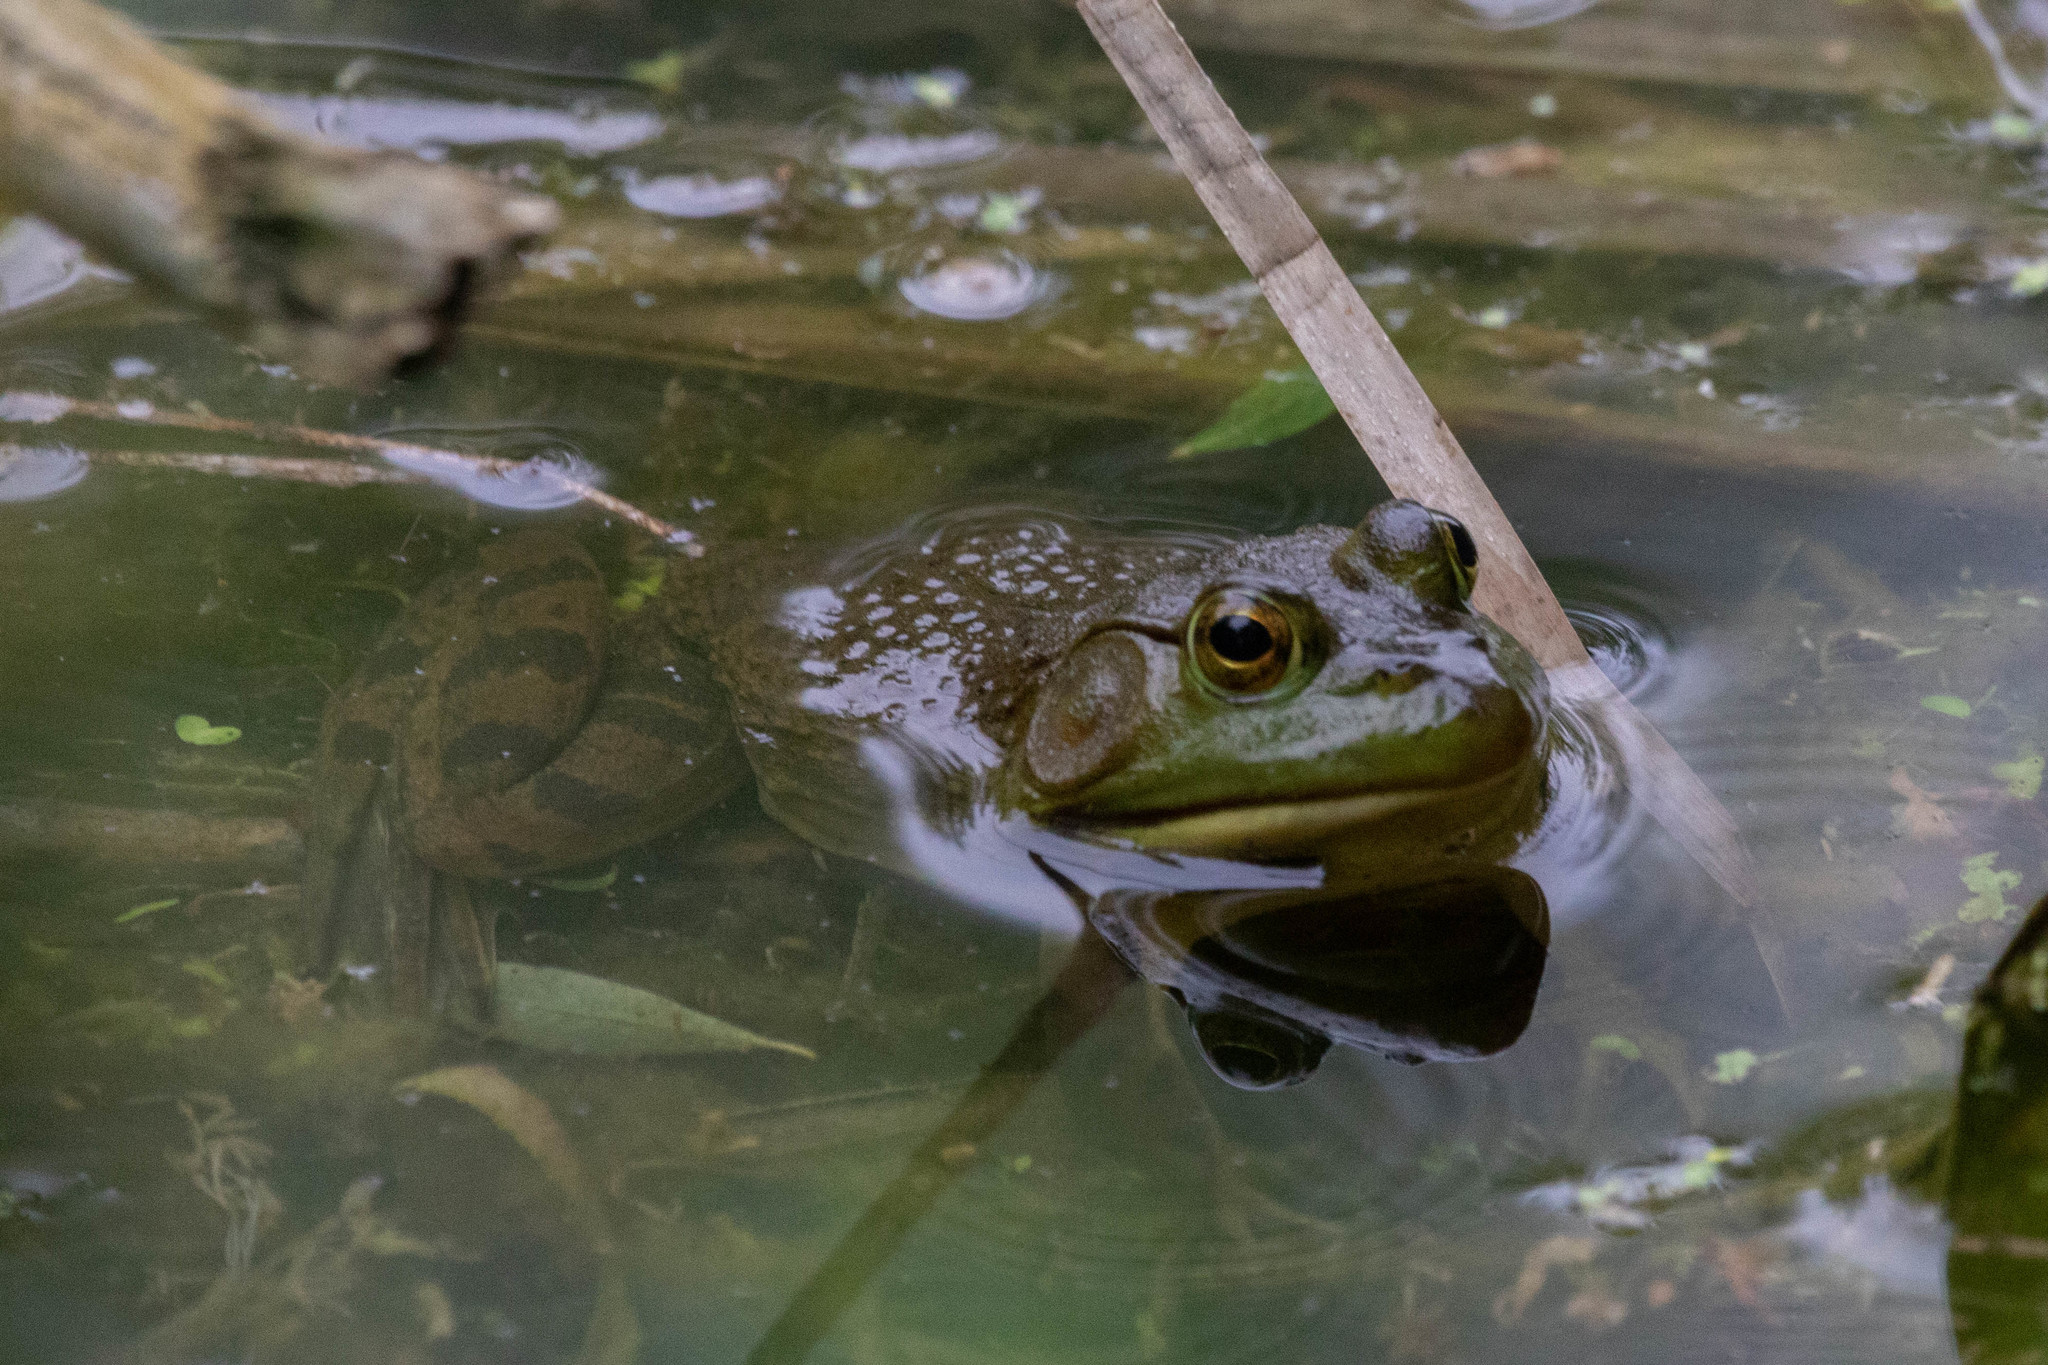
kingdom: Animalia
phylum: Chordata
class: Amphibia
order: Anura
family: Ranidae
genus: Lithobates
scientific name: Lithobates catesbeianus
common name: American bullfrog
